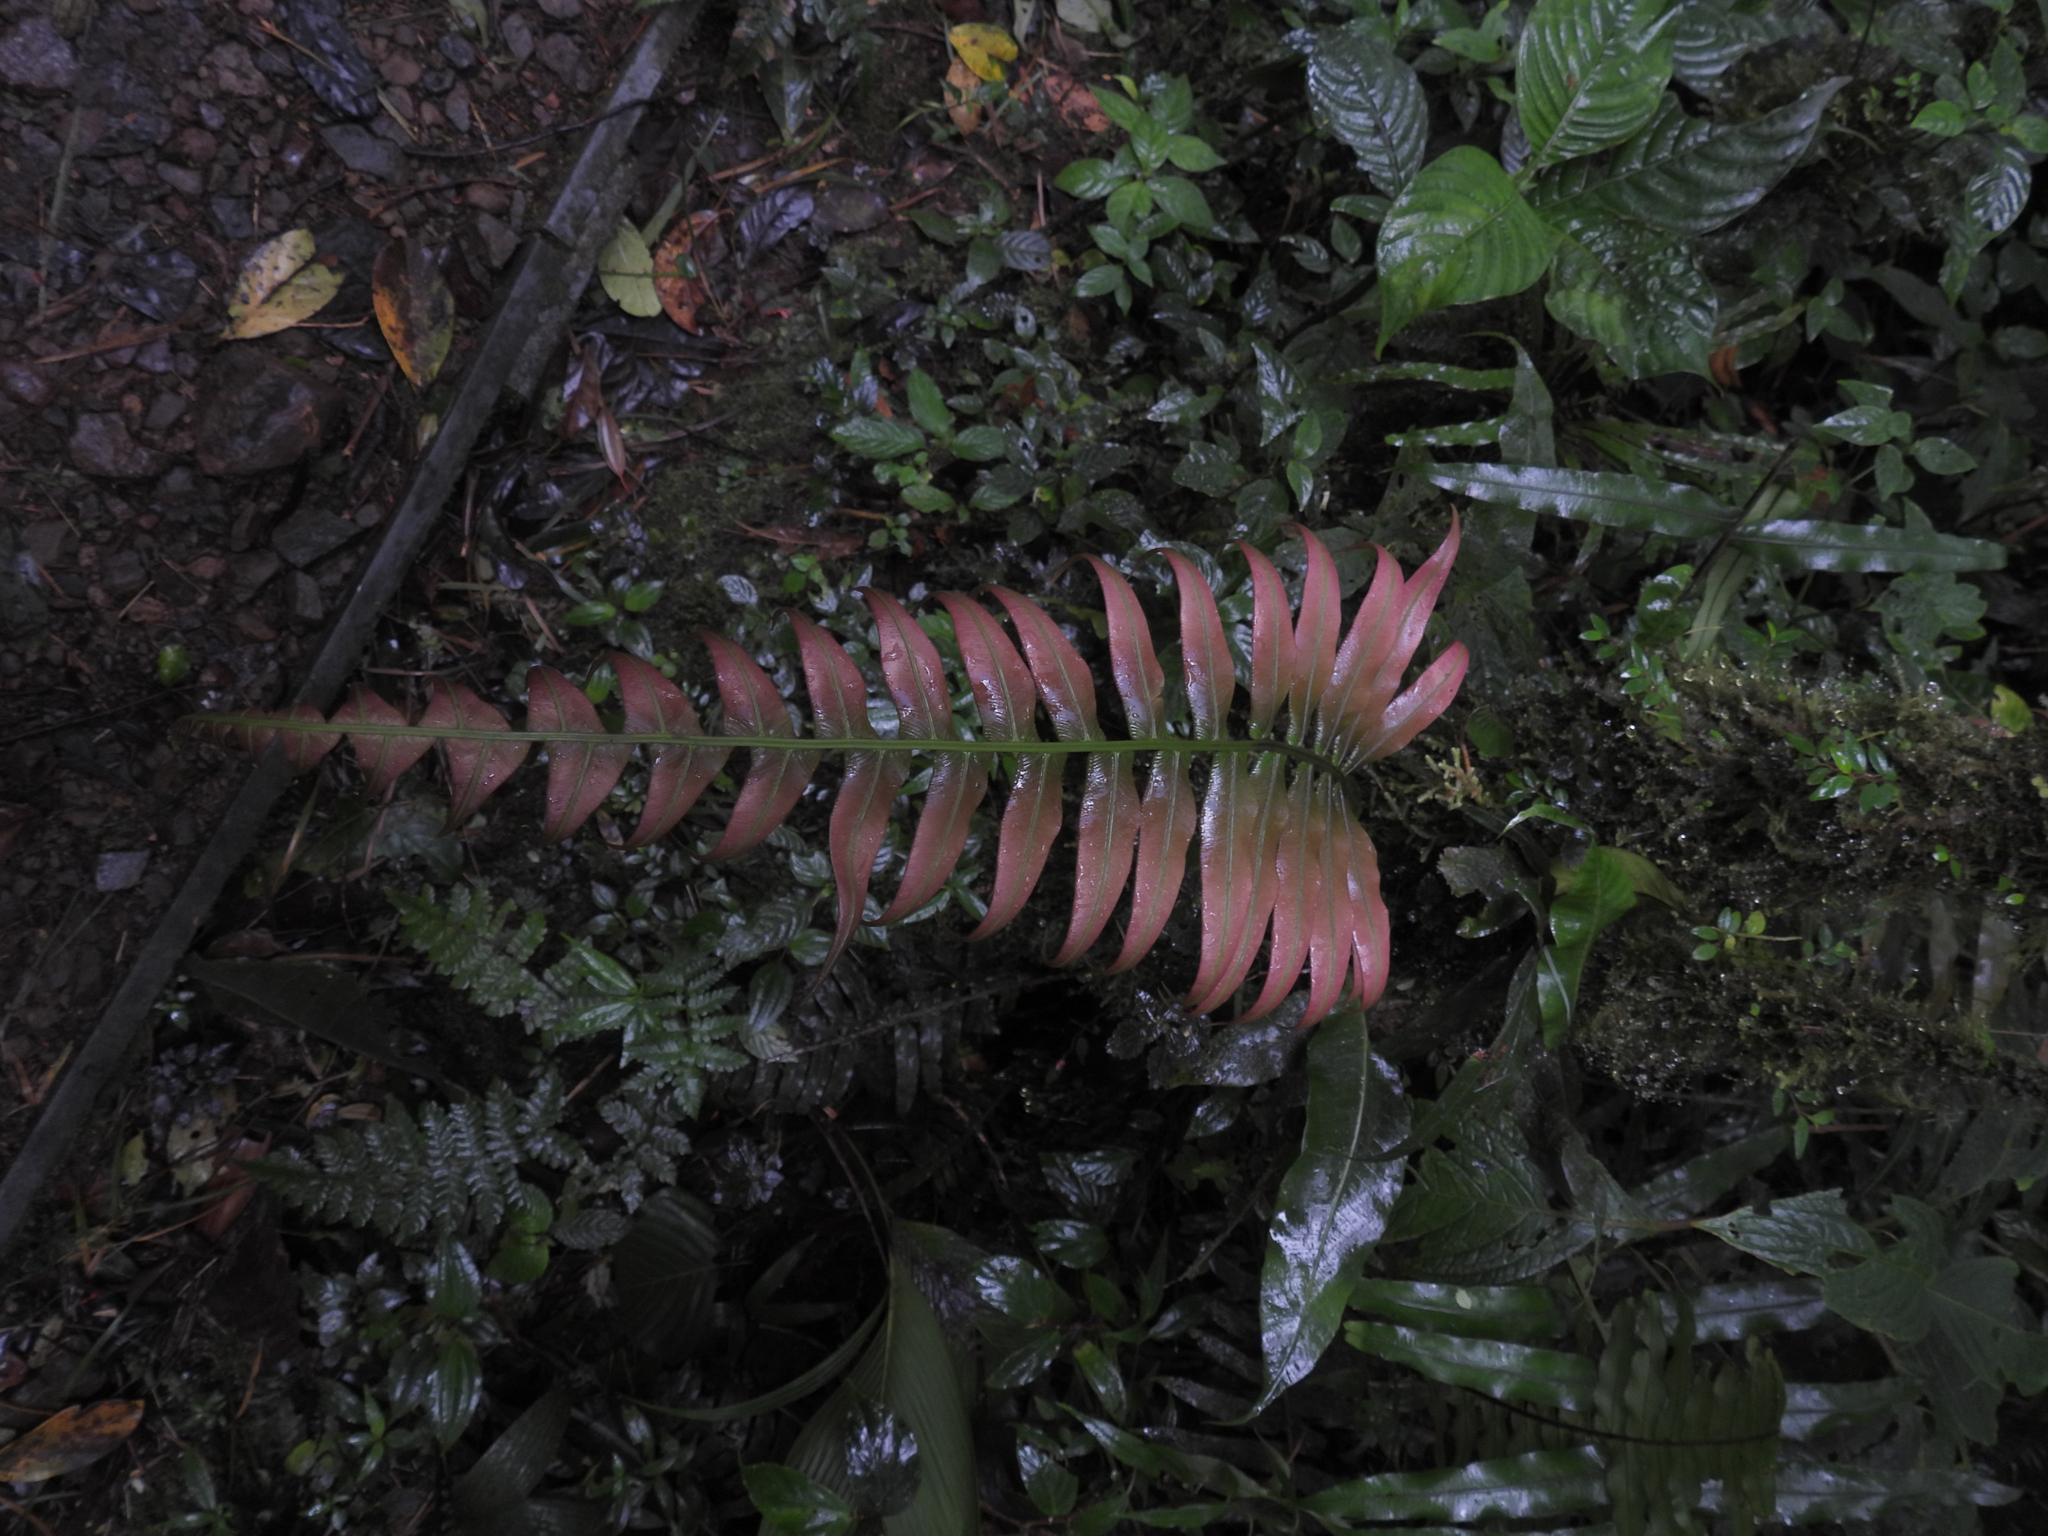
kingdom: Plantae
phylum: Tracheophyta
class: Polypodiopsida
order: Polypodiales
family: Blechnaceae
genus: Blechnum
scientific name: Blechnum occidentale
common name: Hammock fern
